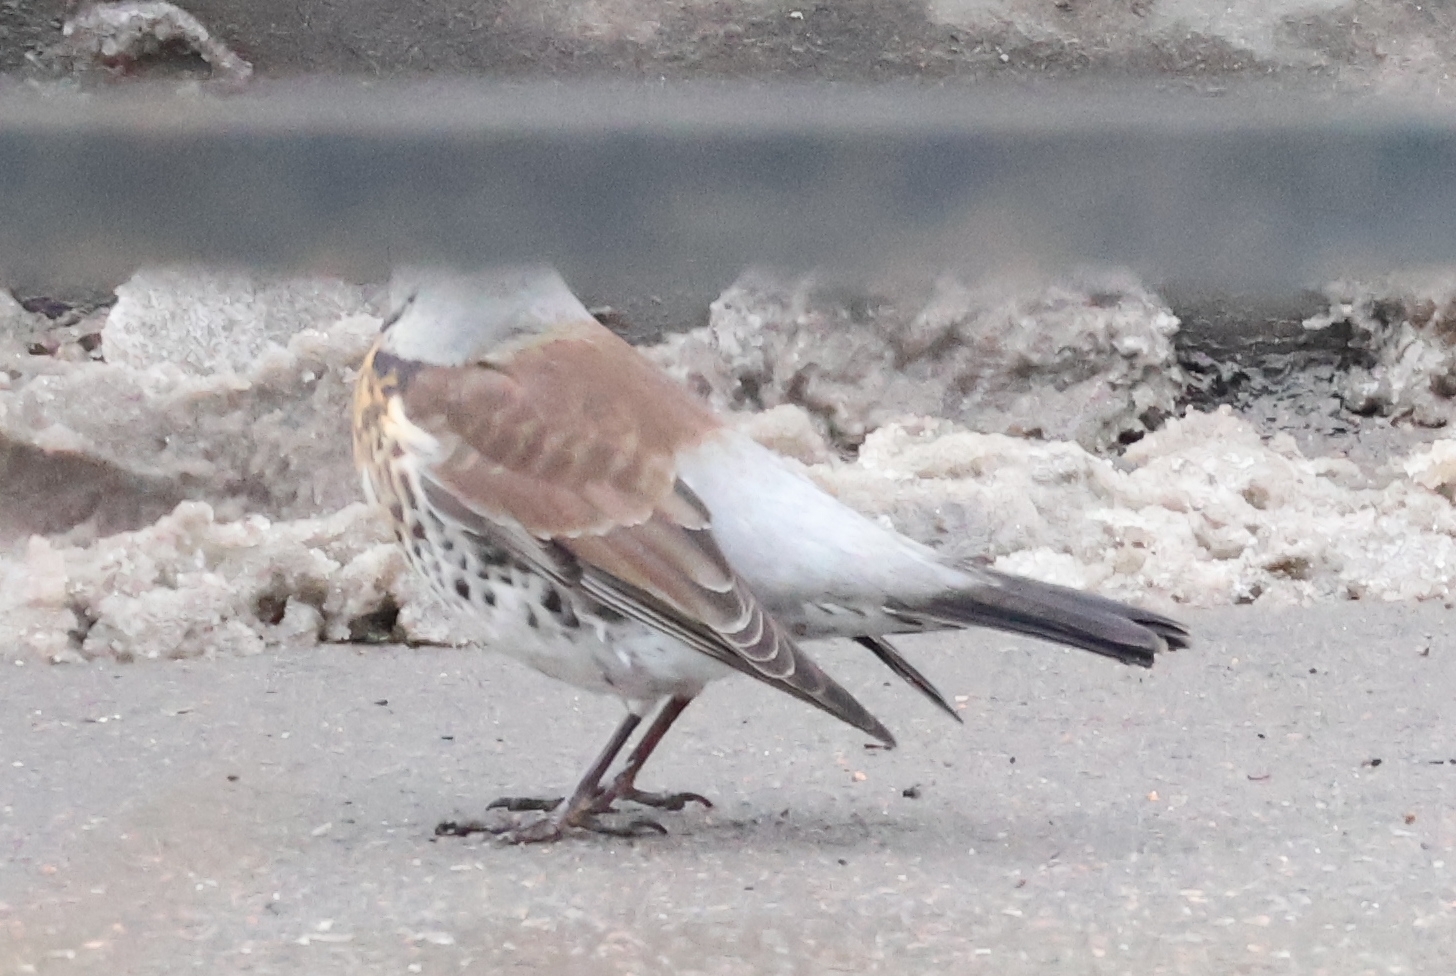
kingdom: Animalia
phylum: Chordata
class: Aves
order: Passeriformes
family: Turdidae
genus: Turdus
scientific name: Turdus pilaris
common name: Fieldfare
